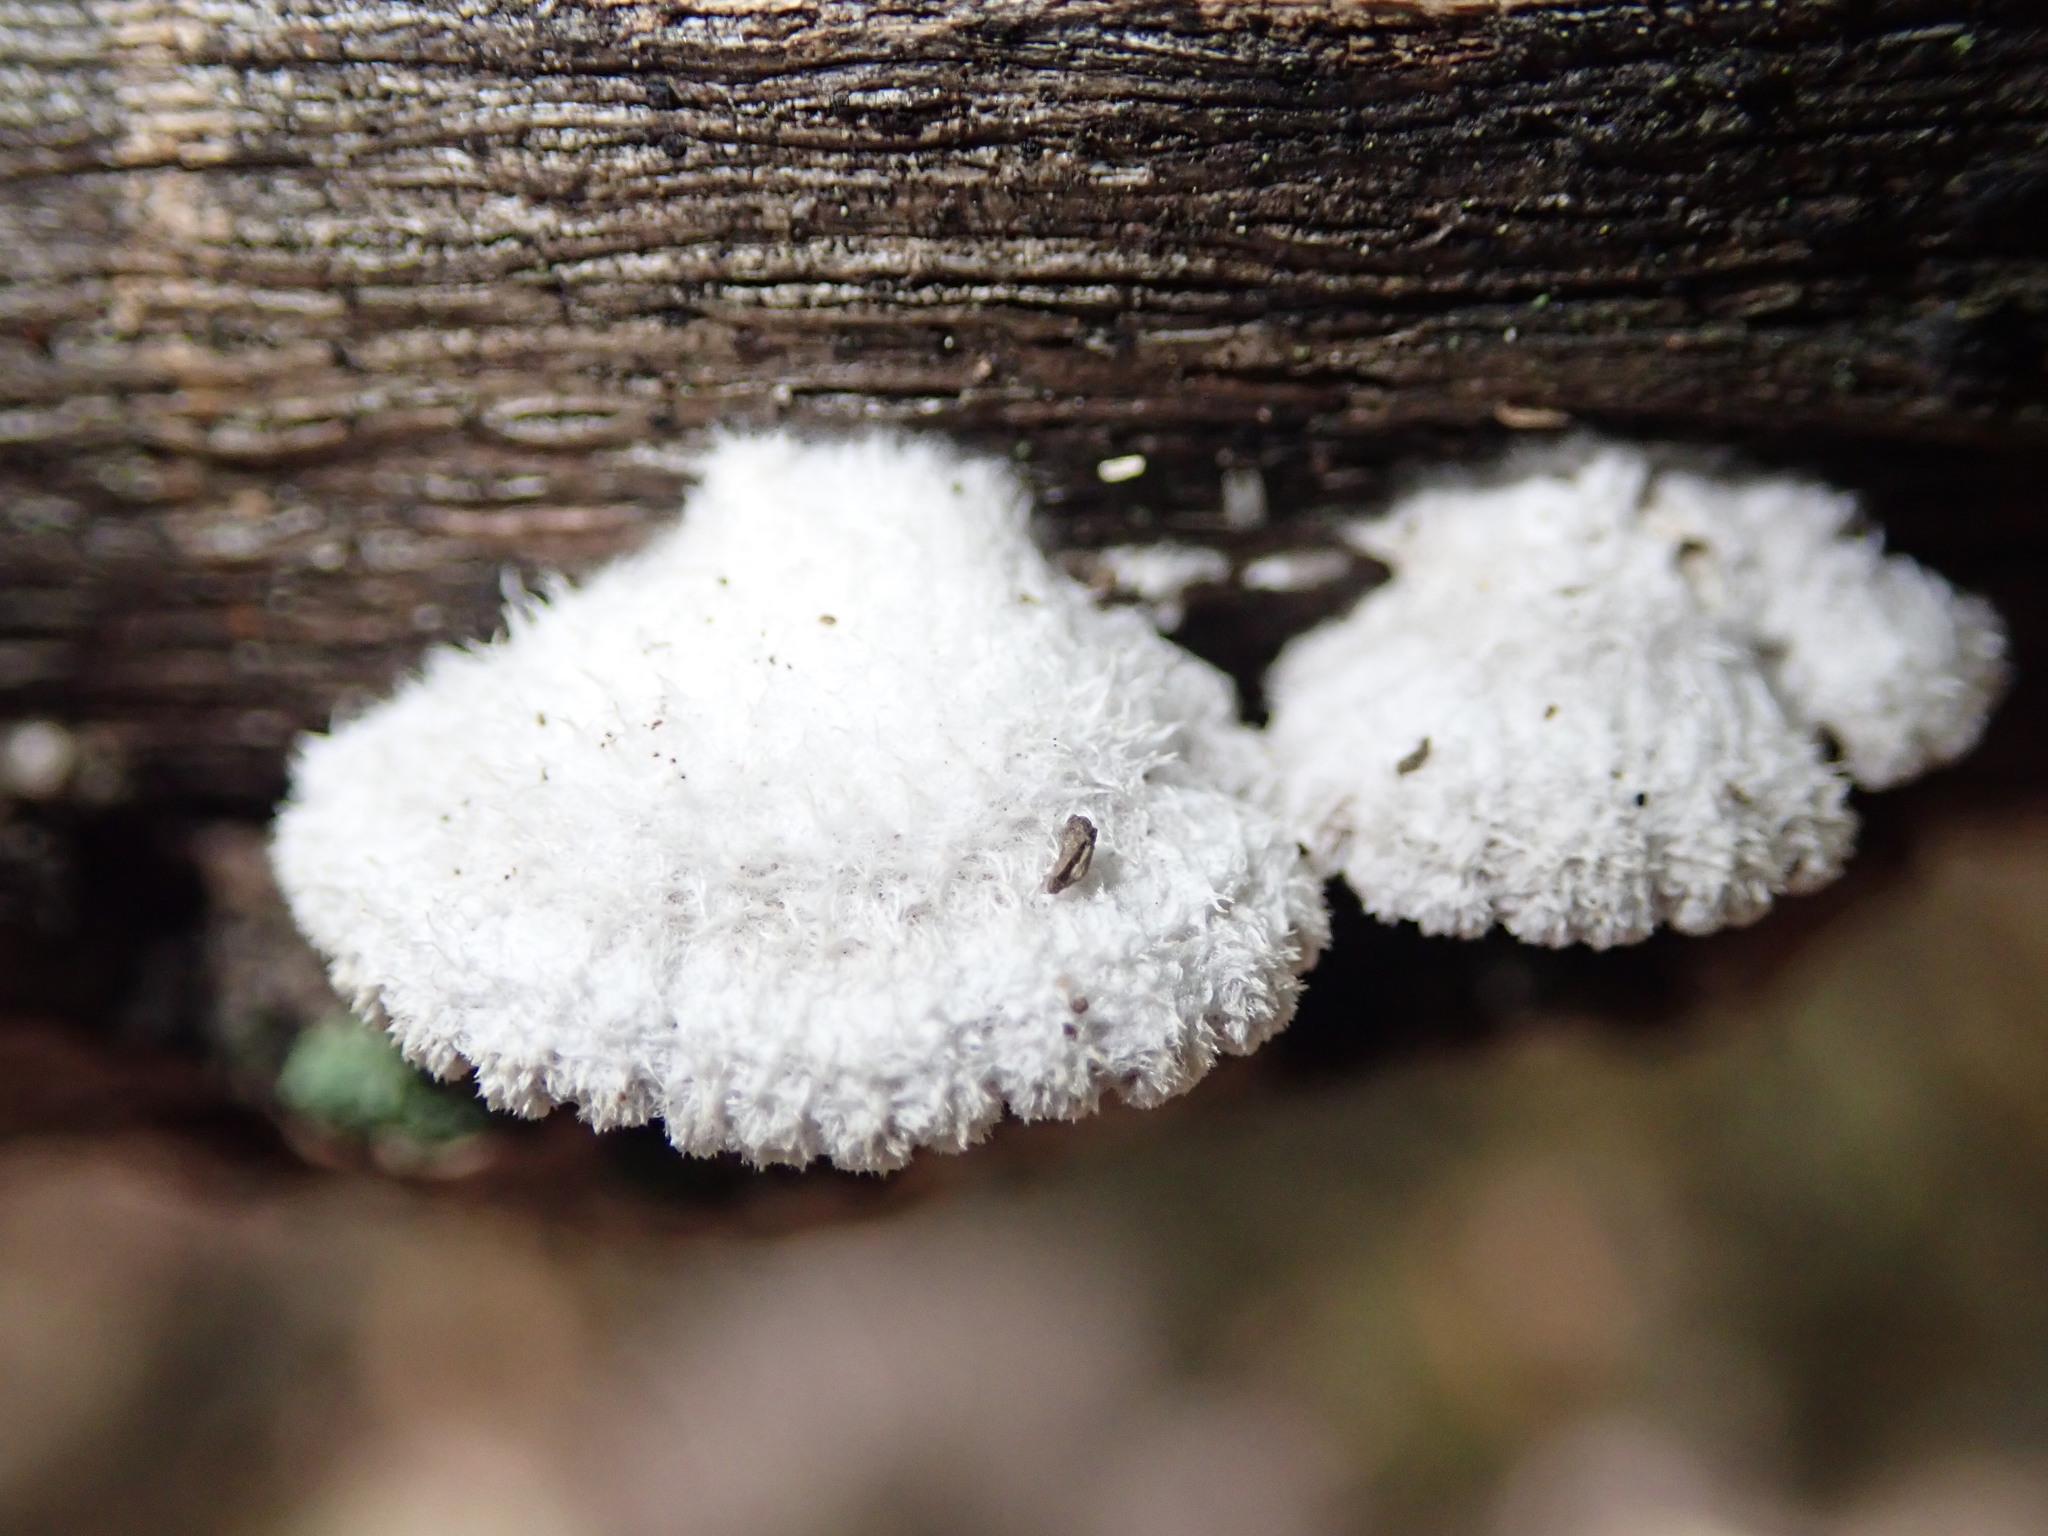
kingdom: Fungi
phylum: Basidiomycota
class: Agaricomycetes
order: Agaricales
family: Schizophyllaceae
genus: Schizophyllum
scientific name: Schizophyllum commune
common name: Common porecrust
